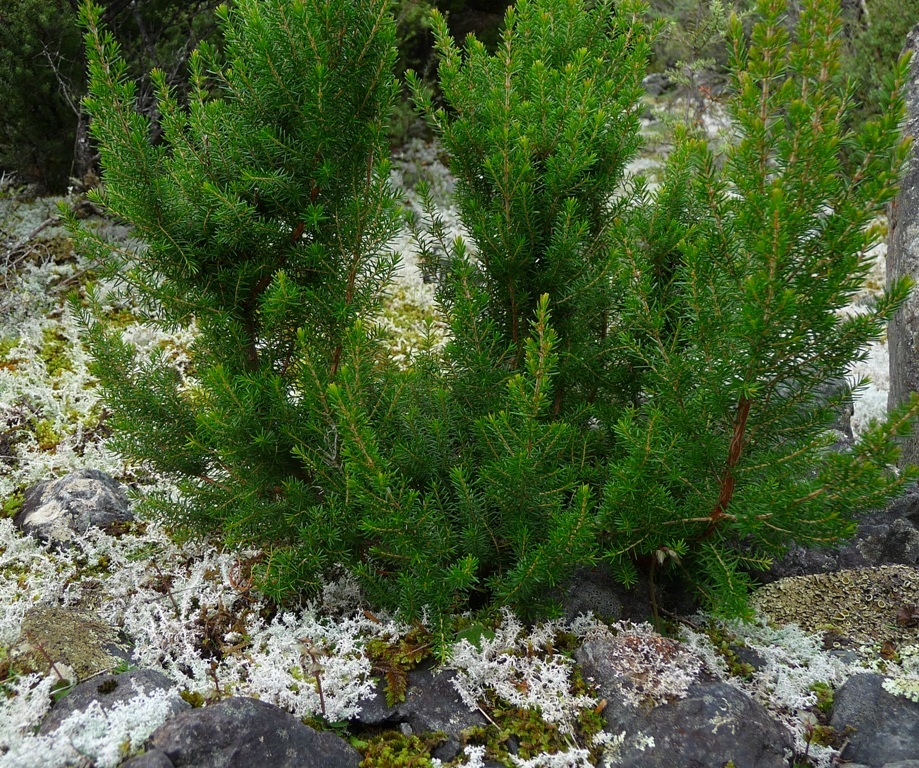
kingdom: Plantae
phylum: Tracheophyta
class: Magnoliopsida
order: Ericales
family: Ericaceae
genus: Erica
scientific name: Erica lusitanica
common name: Spanish heath
